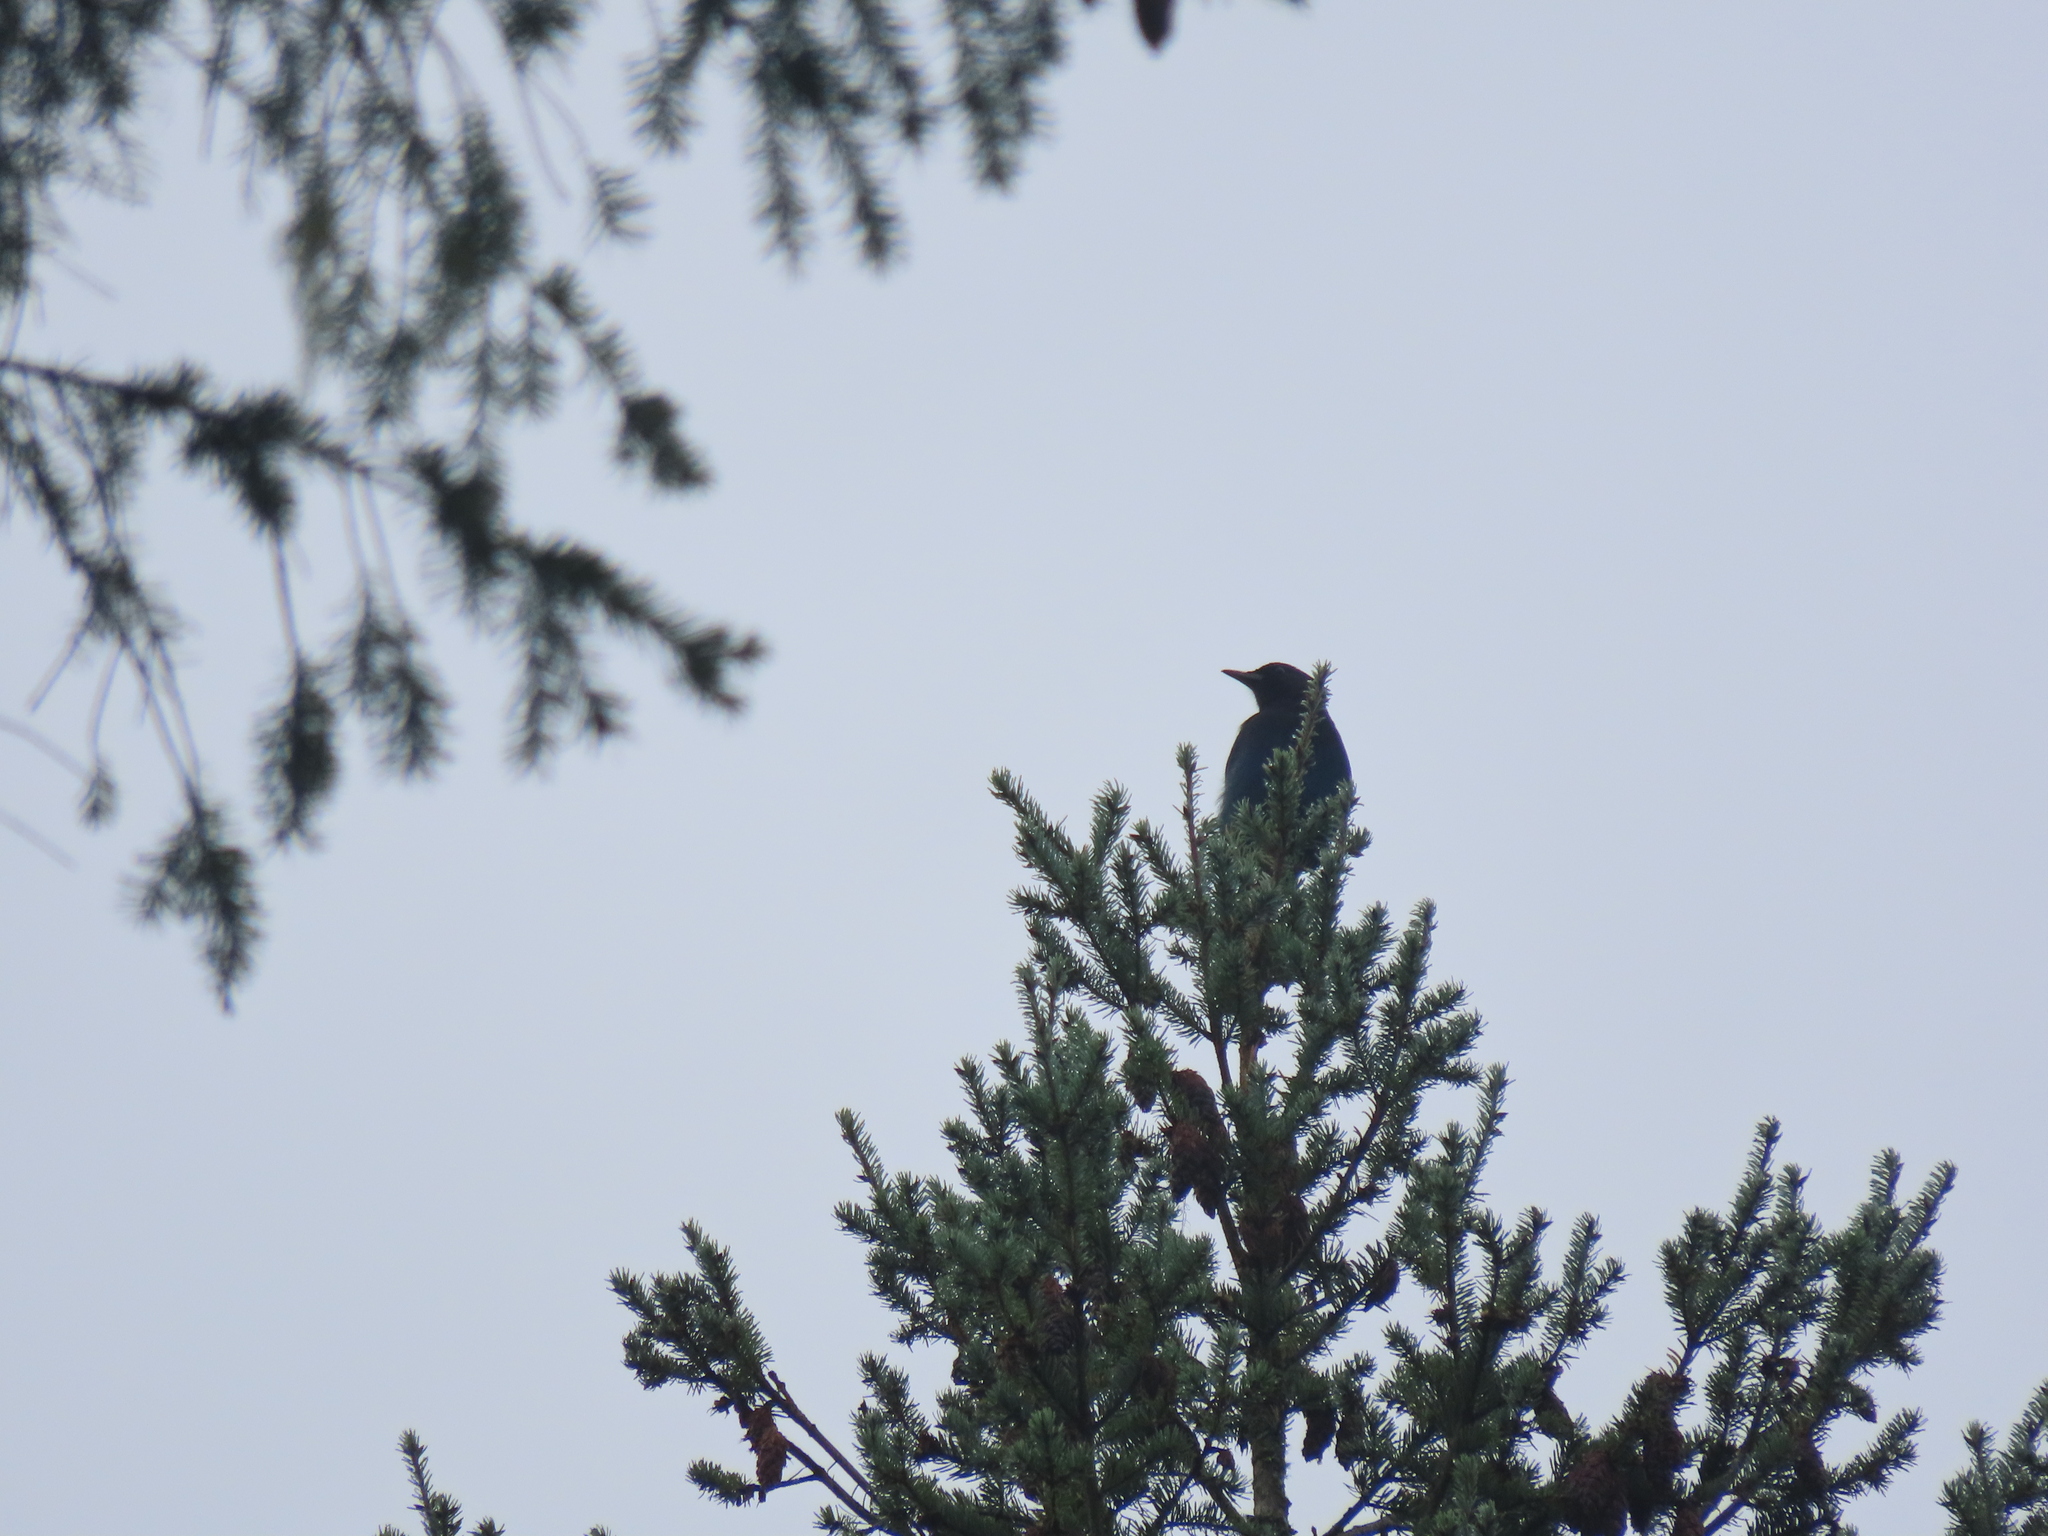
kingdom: Animalia
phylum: Chordata
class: Aves
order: Passeriformes
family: Corvidae
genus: Cyanocitta
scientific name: Cyanocitta stelleri
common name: Steller's jay
